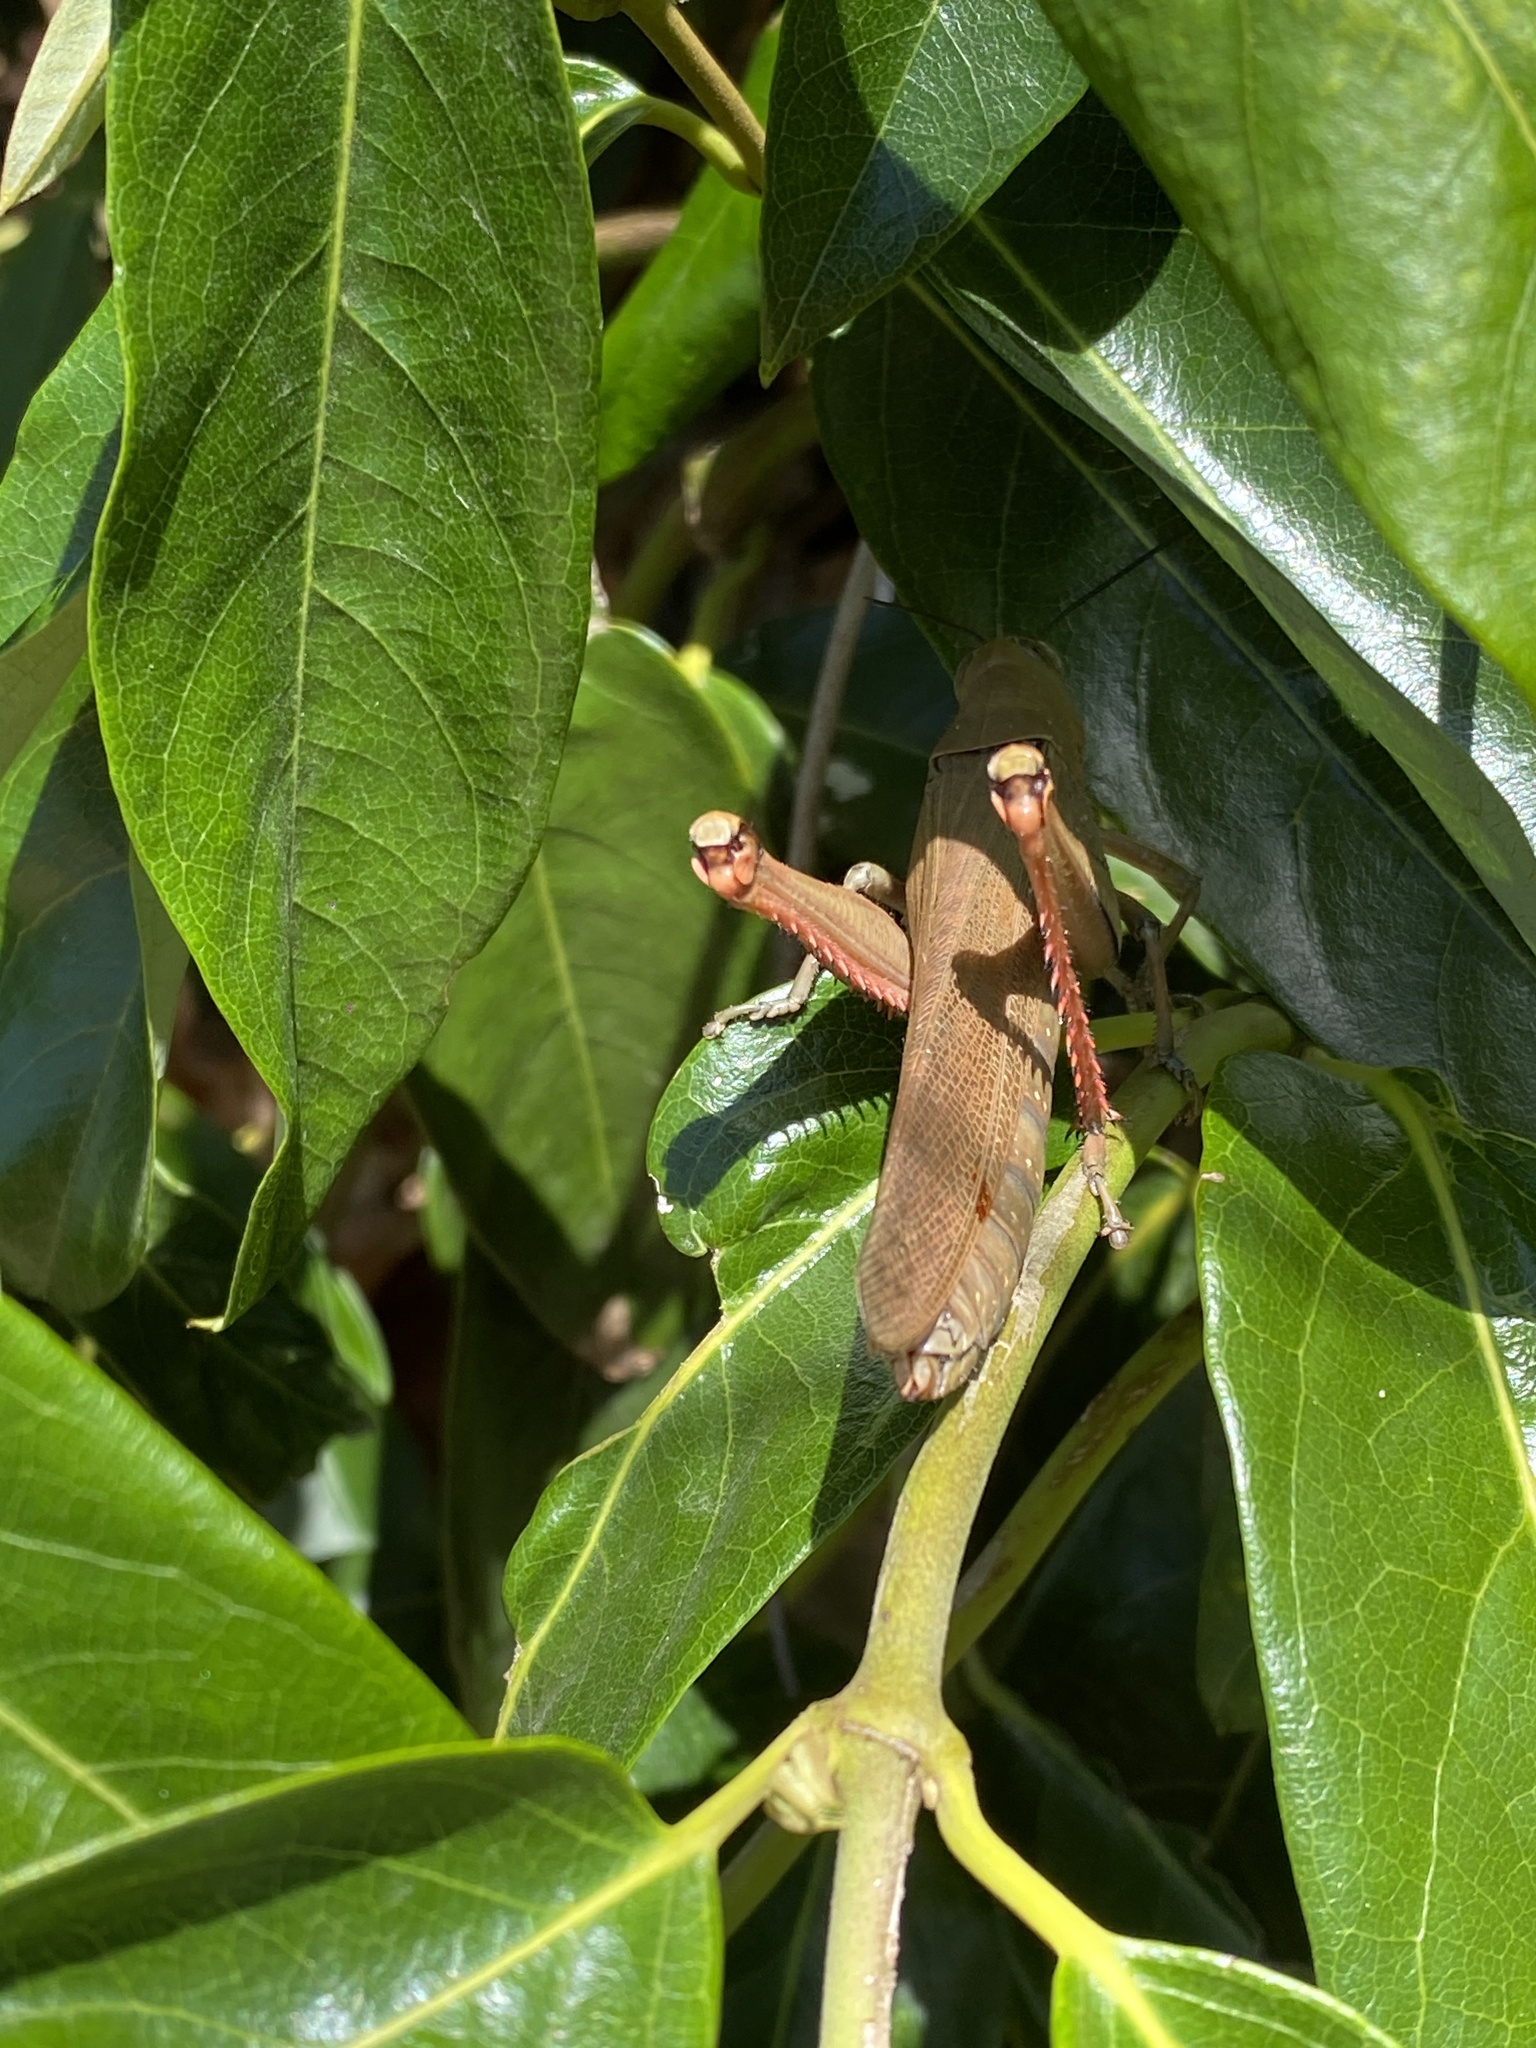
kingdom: Animalia
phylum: Arthropoda
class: Insecta
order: Orthoptera
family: Acrididae
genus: Valanga
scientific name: Valanga irregularis
